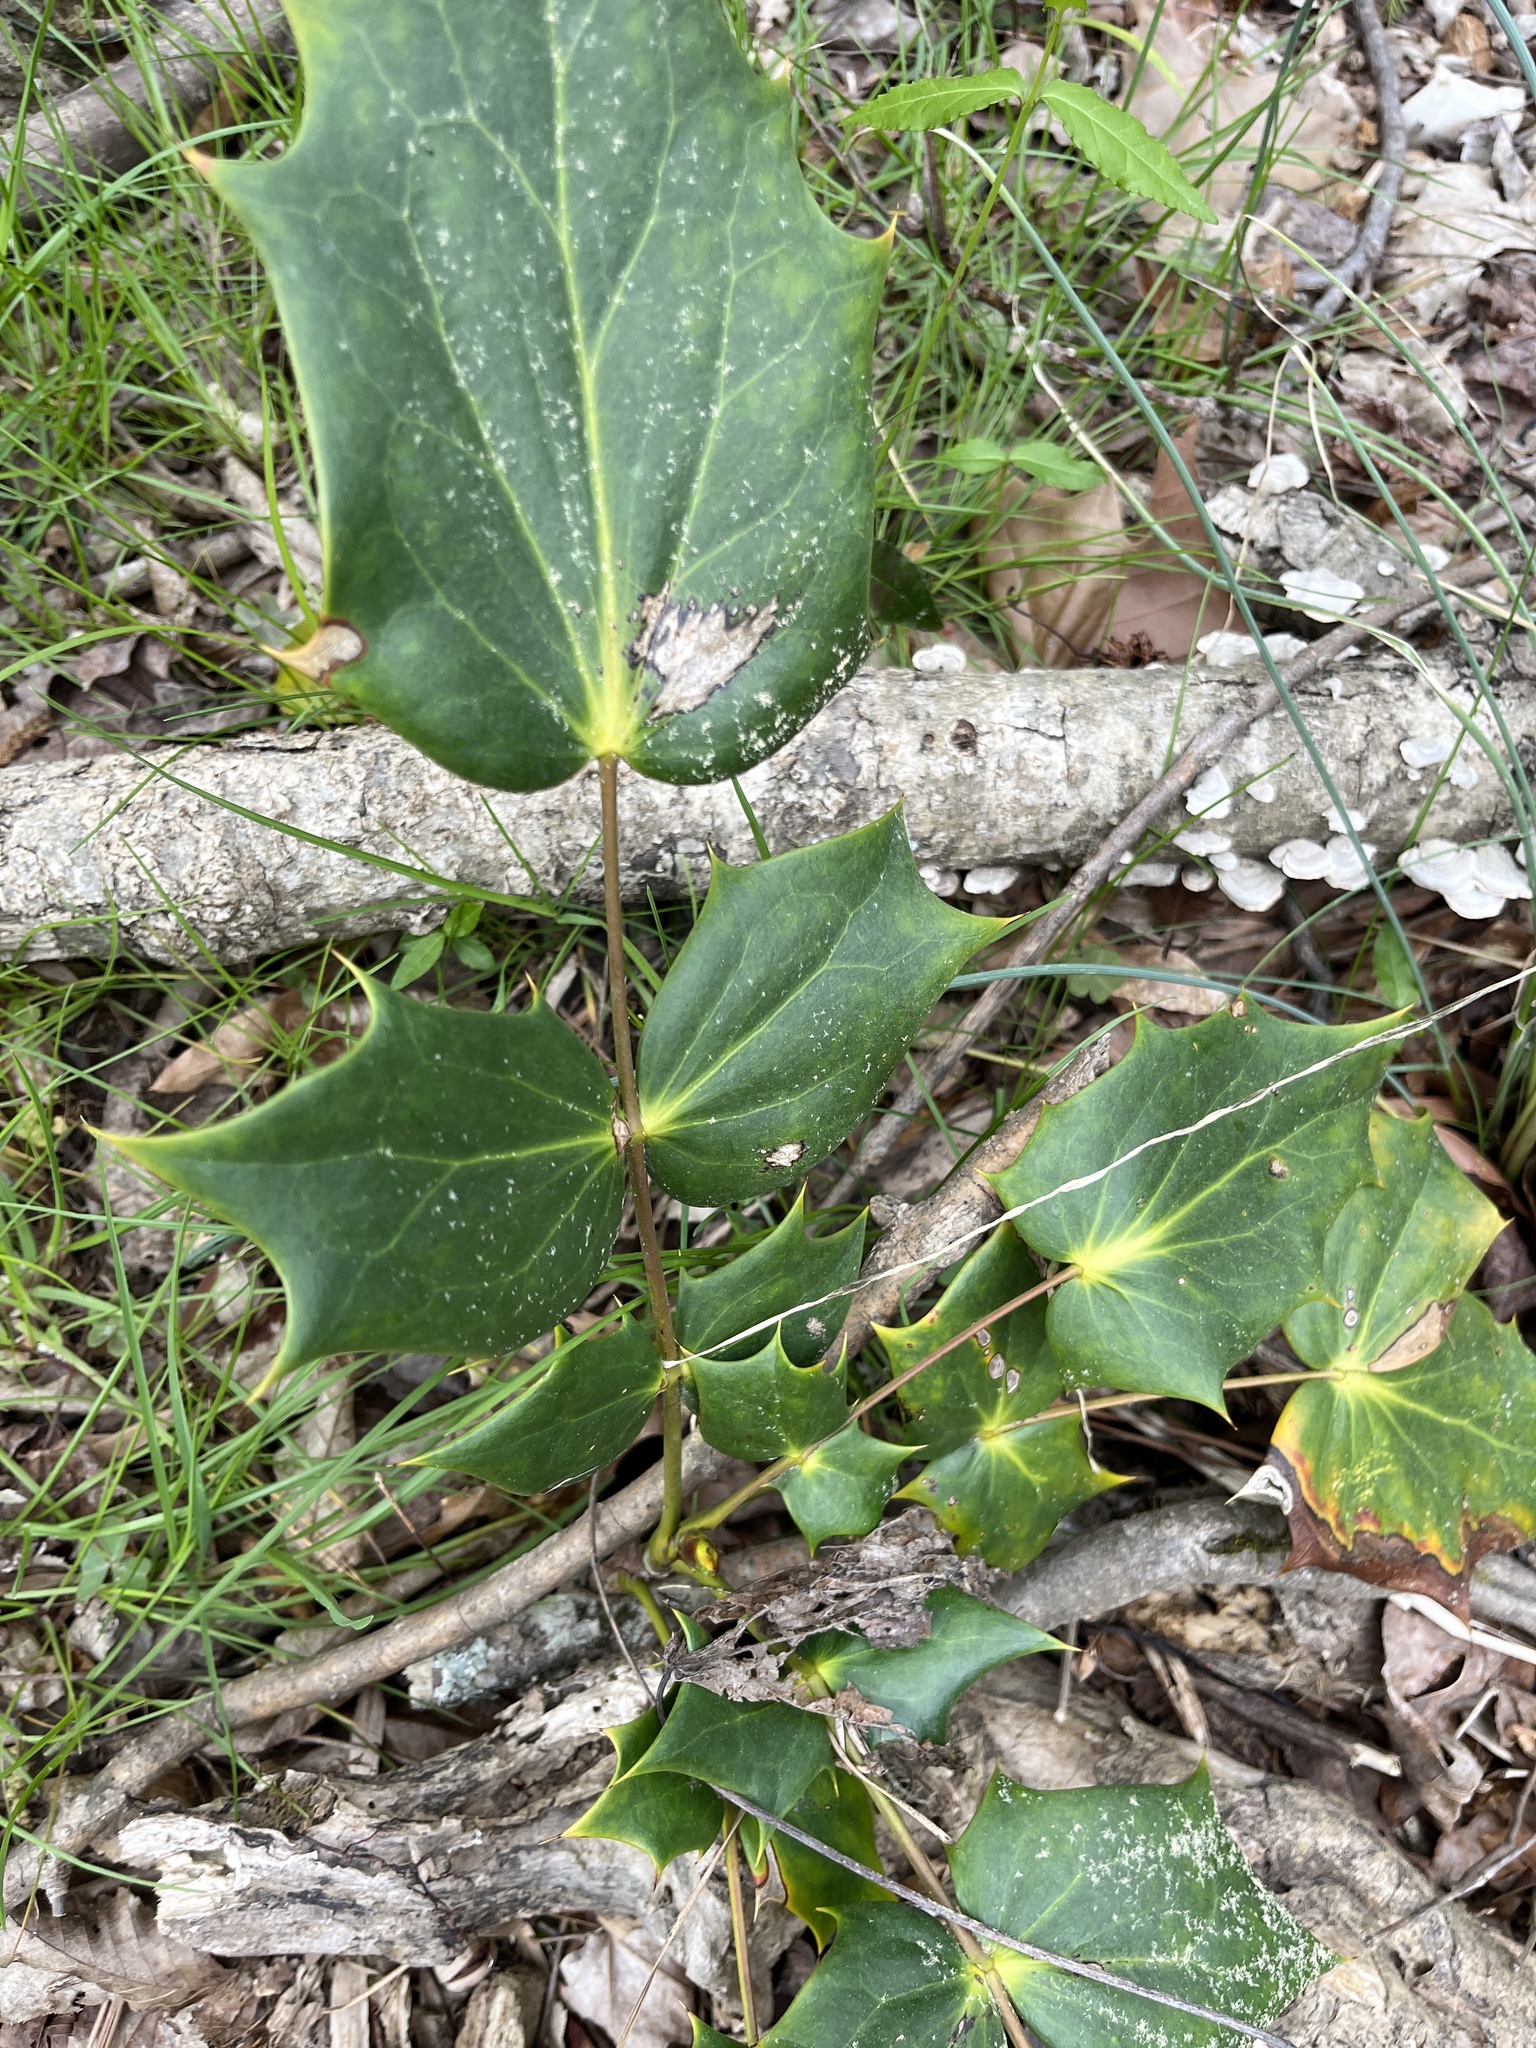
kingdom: Plantae
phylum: Tracheophyta
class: Magnoliopsida
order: Ranunculales
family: Berberidaceae
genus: Mahonia
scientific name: Mahonia bealei
